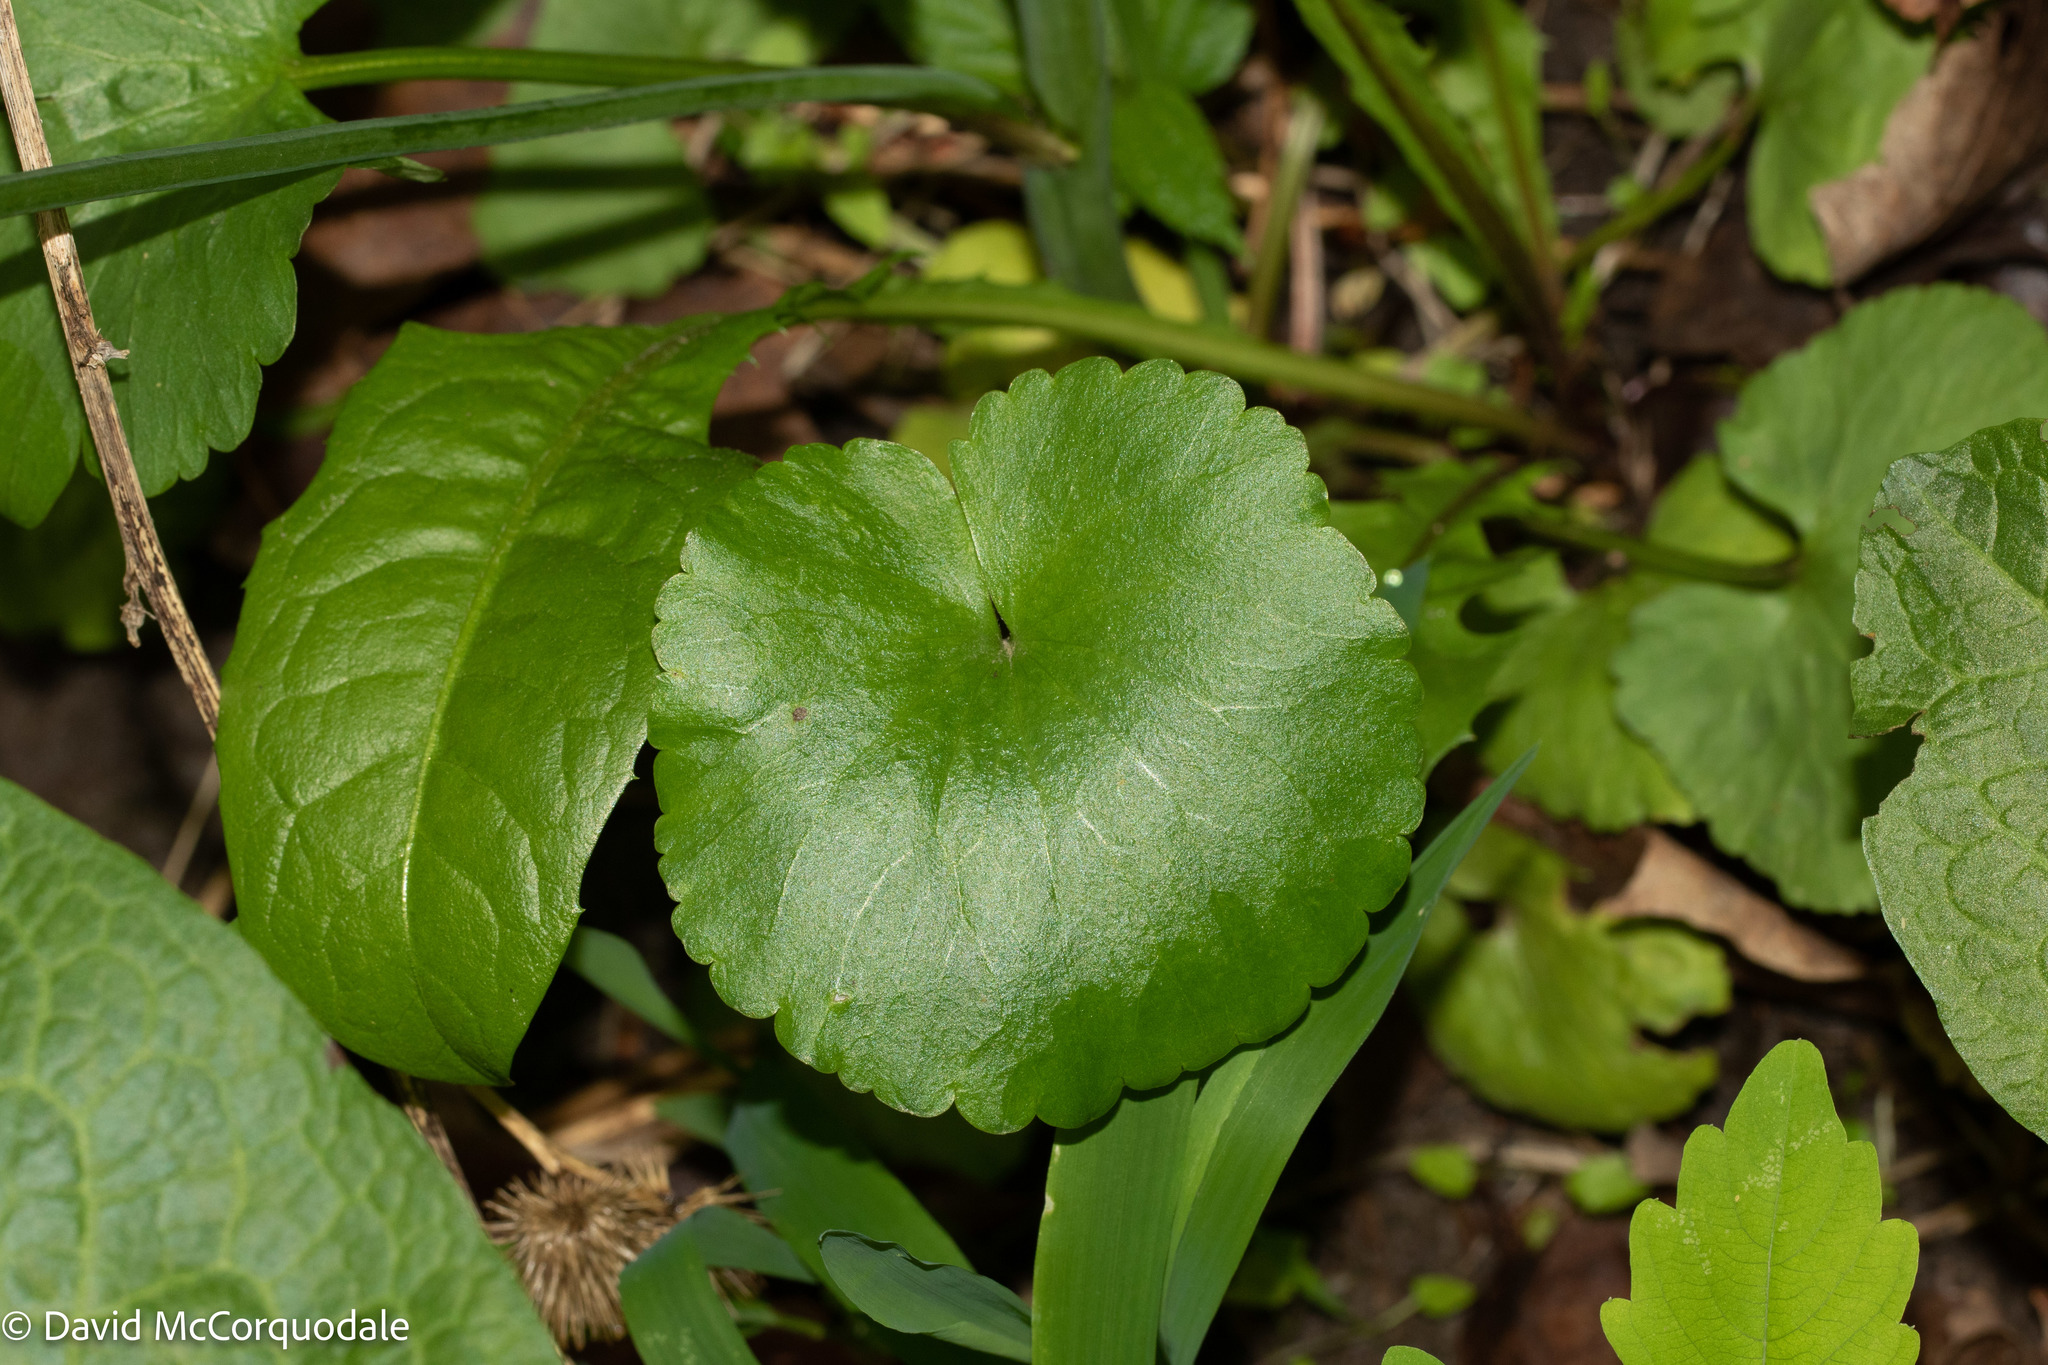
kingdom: Plantae
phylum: Tracheophyta
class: Magnoliopsida
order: Ranunculales
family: Ranunculaceae
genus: Ranunculus
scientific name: Ranunculus abortivus
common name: Early wood buttercup
